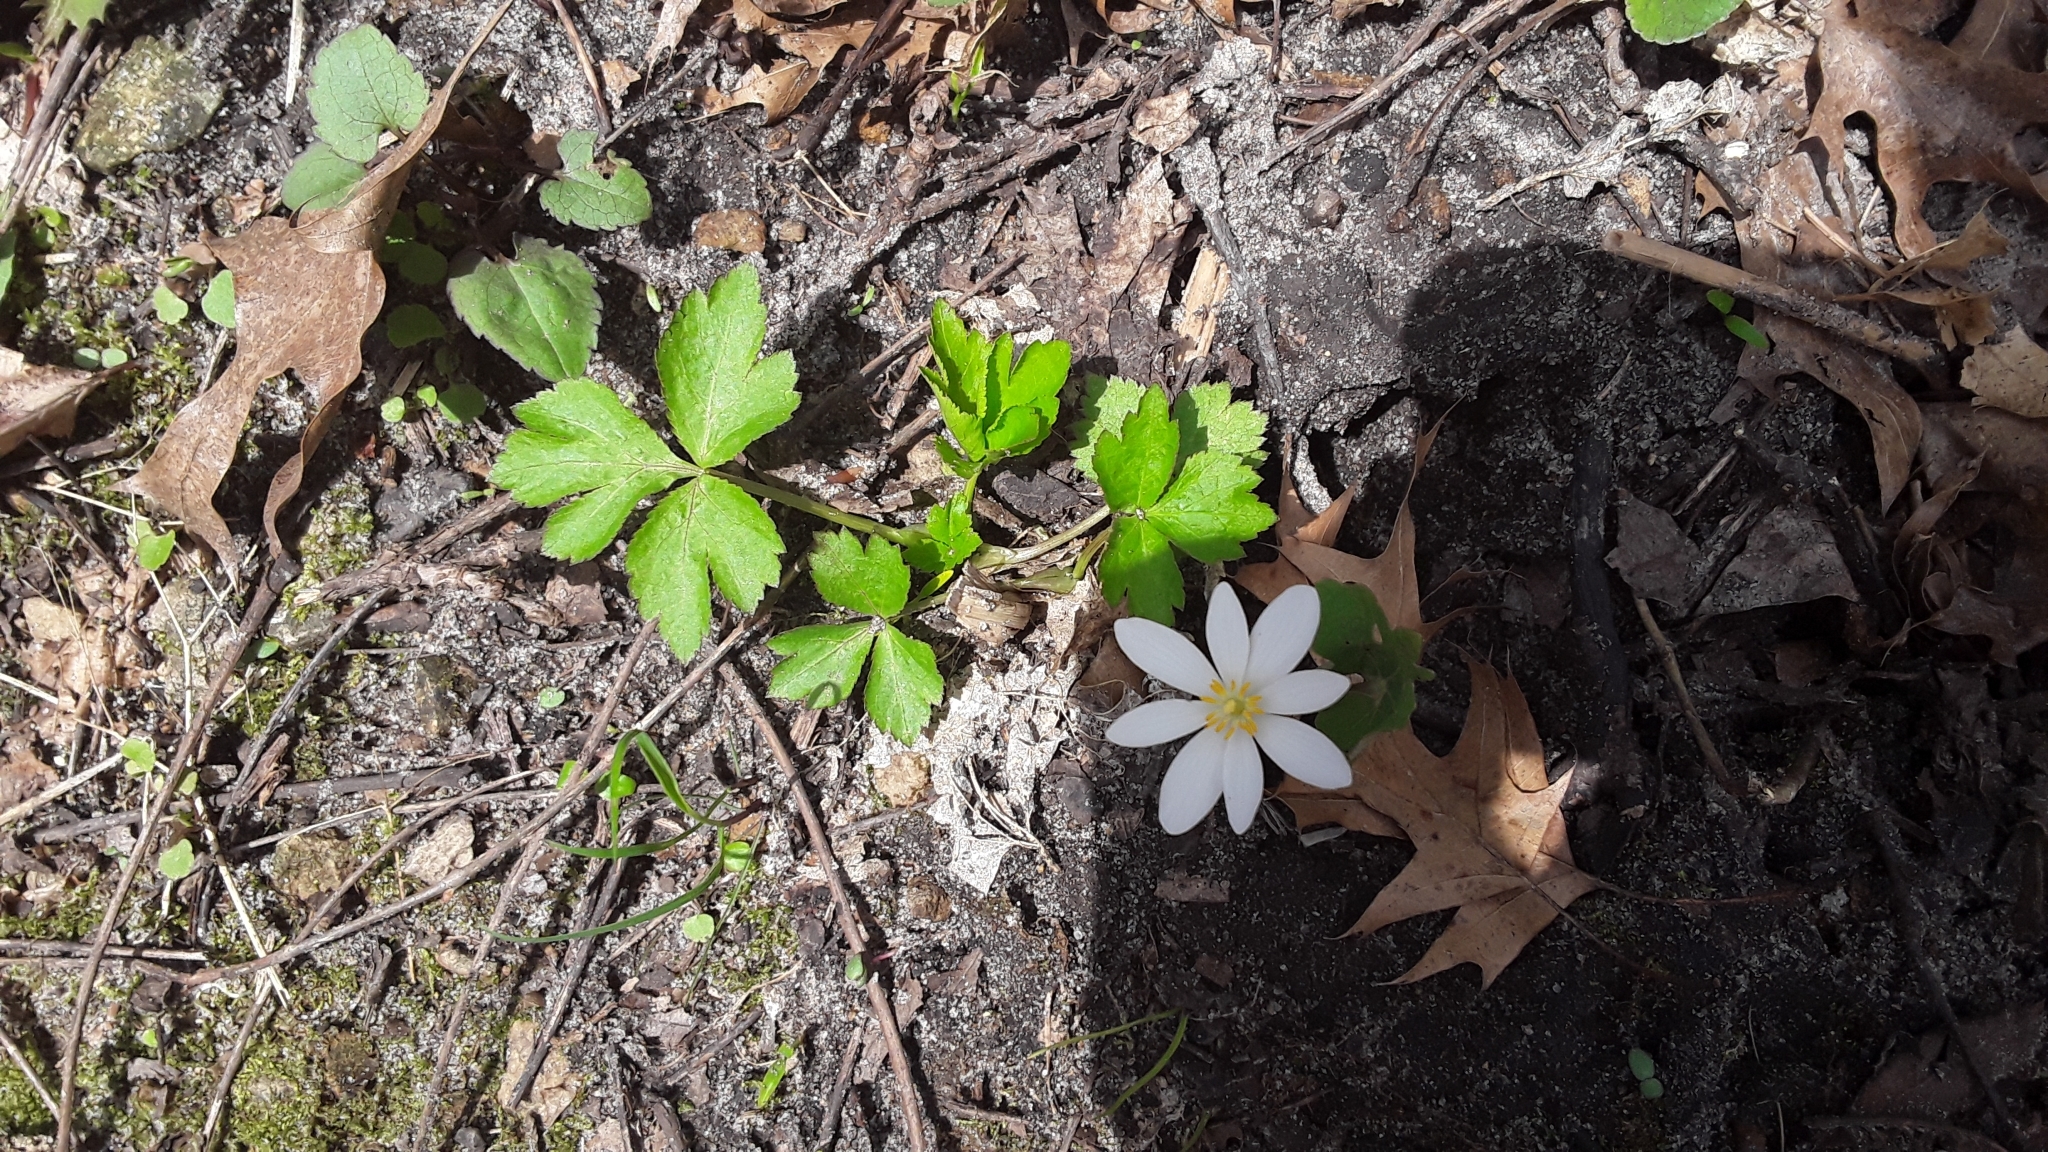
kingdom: Plantae
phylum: Tracheophyta
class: Magnoliopsida
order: Ranunculales
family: Papaveraceae
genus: Sanguinaria
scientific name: Sanguinaria canadensis
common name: Bloodroot
